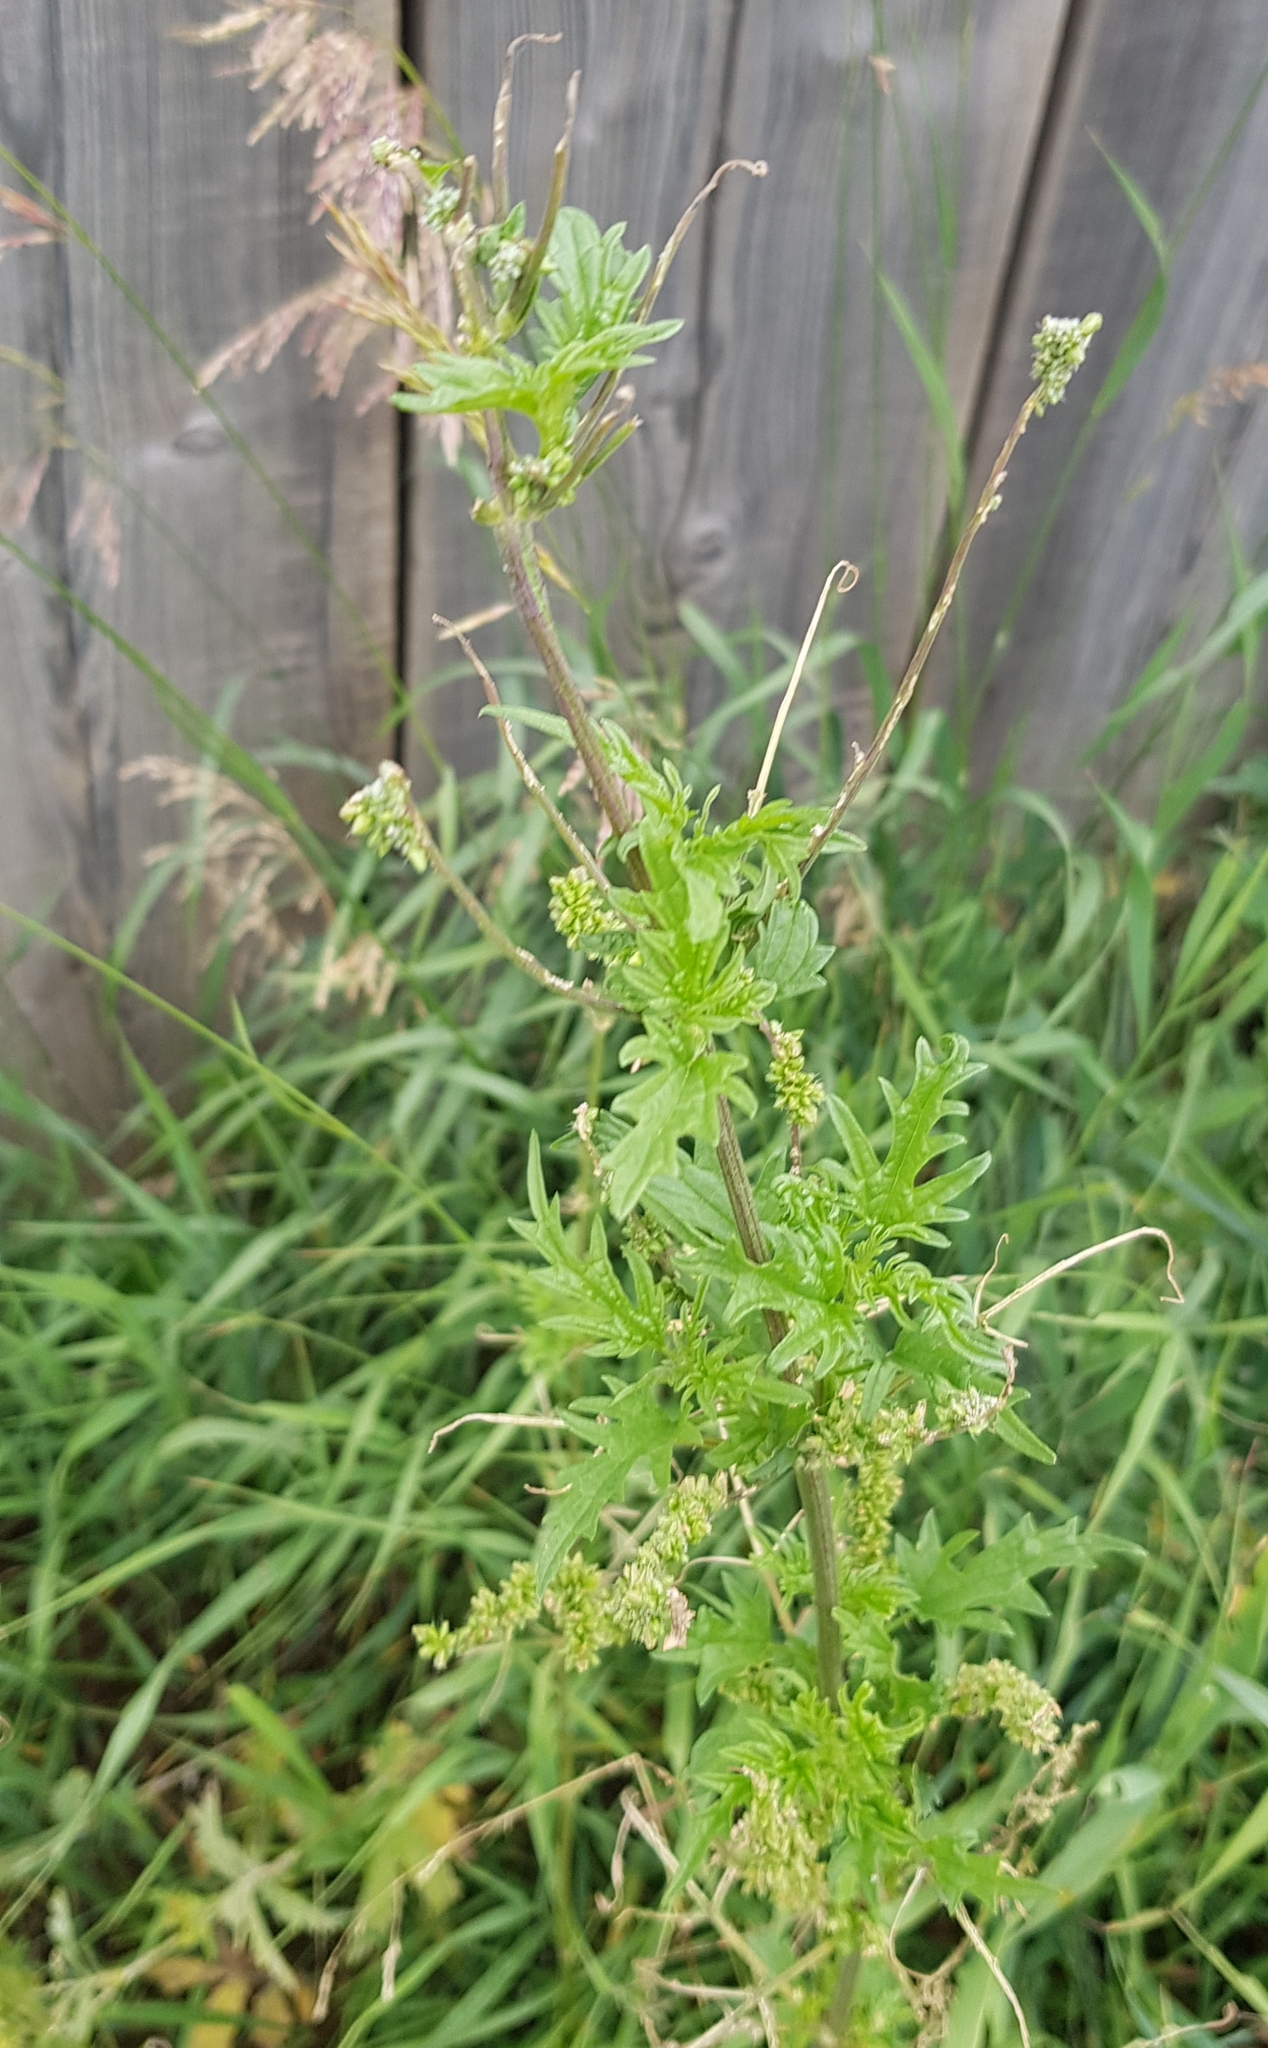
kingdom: Plantae
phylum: Tracheophyta
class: Magnoliopsida
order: Rosales
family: Urticaceae
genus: Urtica
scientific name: Urtica cannabina
